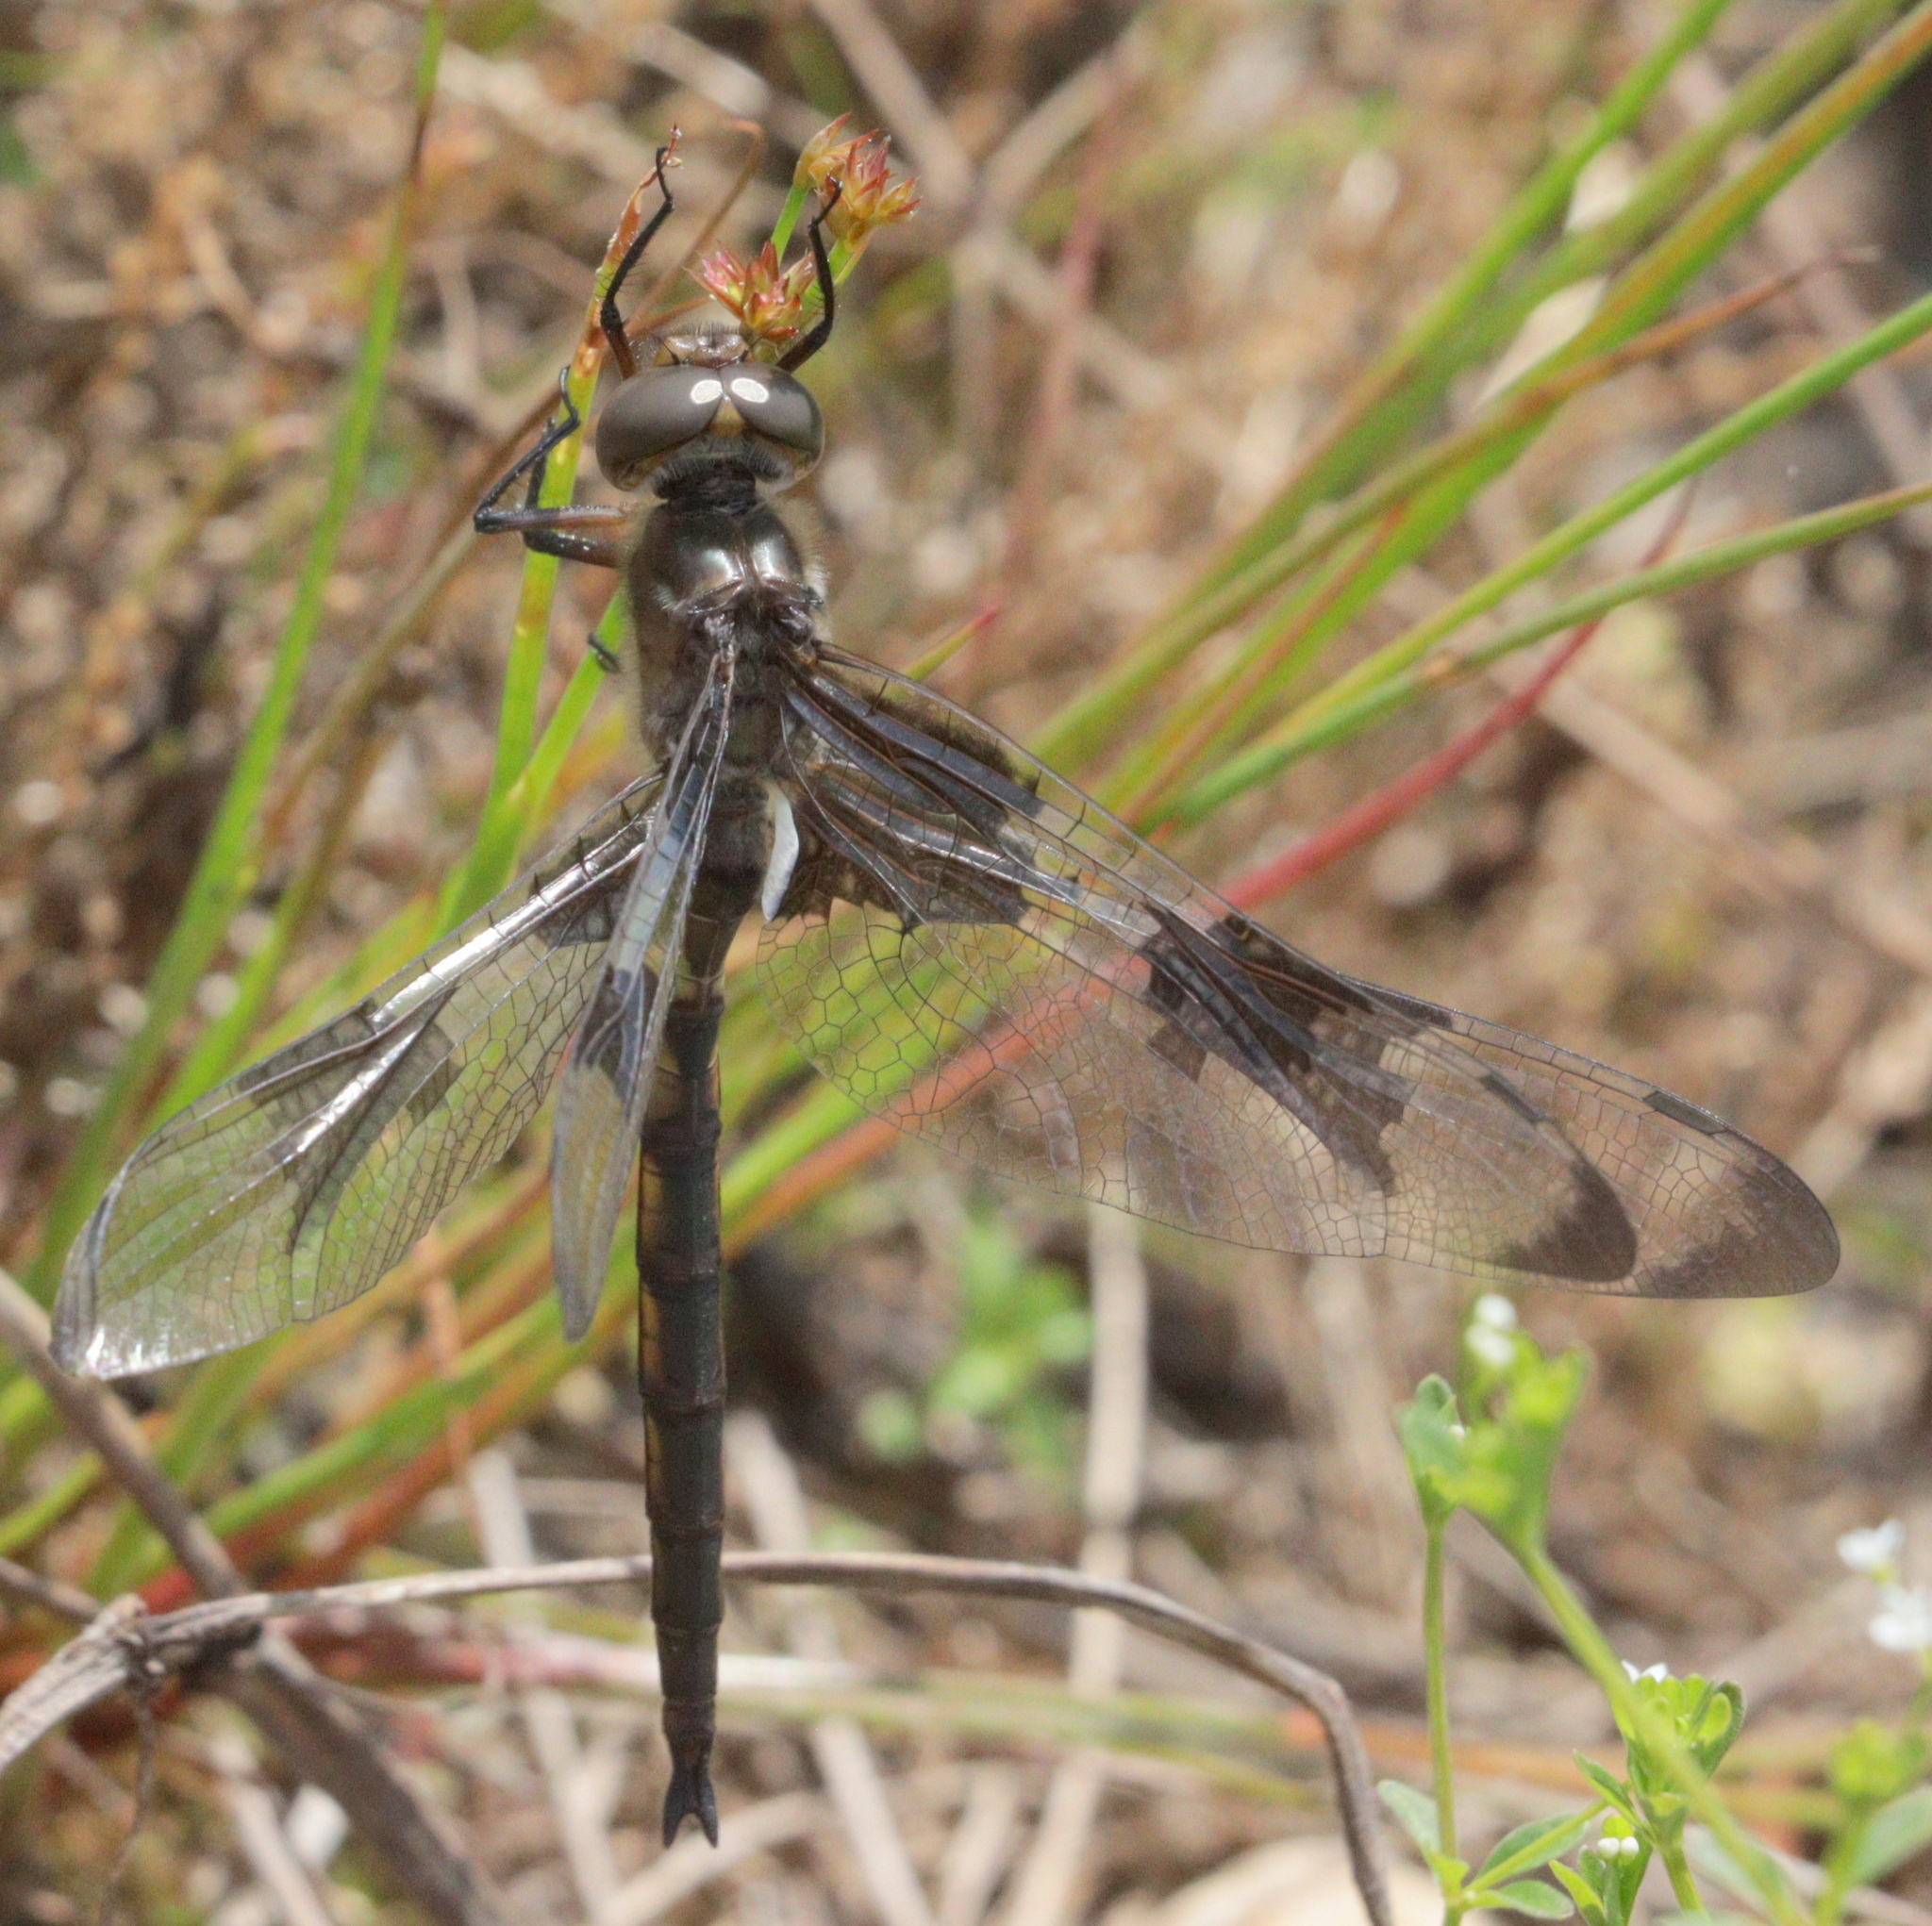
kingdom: Animalia
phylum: Arthropoda
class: Insecta
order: Odonata
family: Corduliidae
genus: Epitheca
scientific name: Epitheca princeps
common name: Prince baskettail
